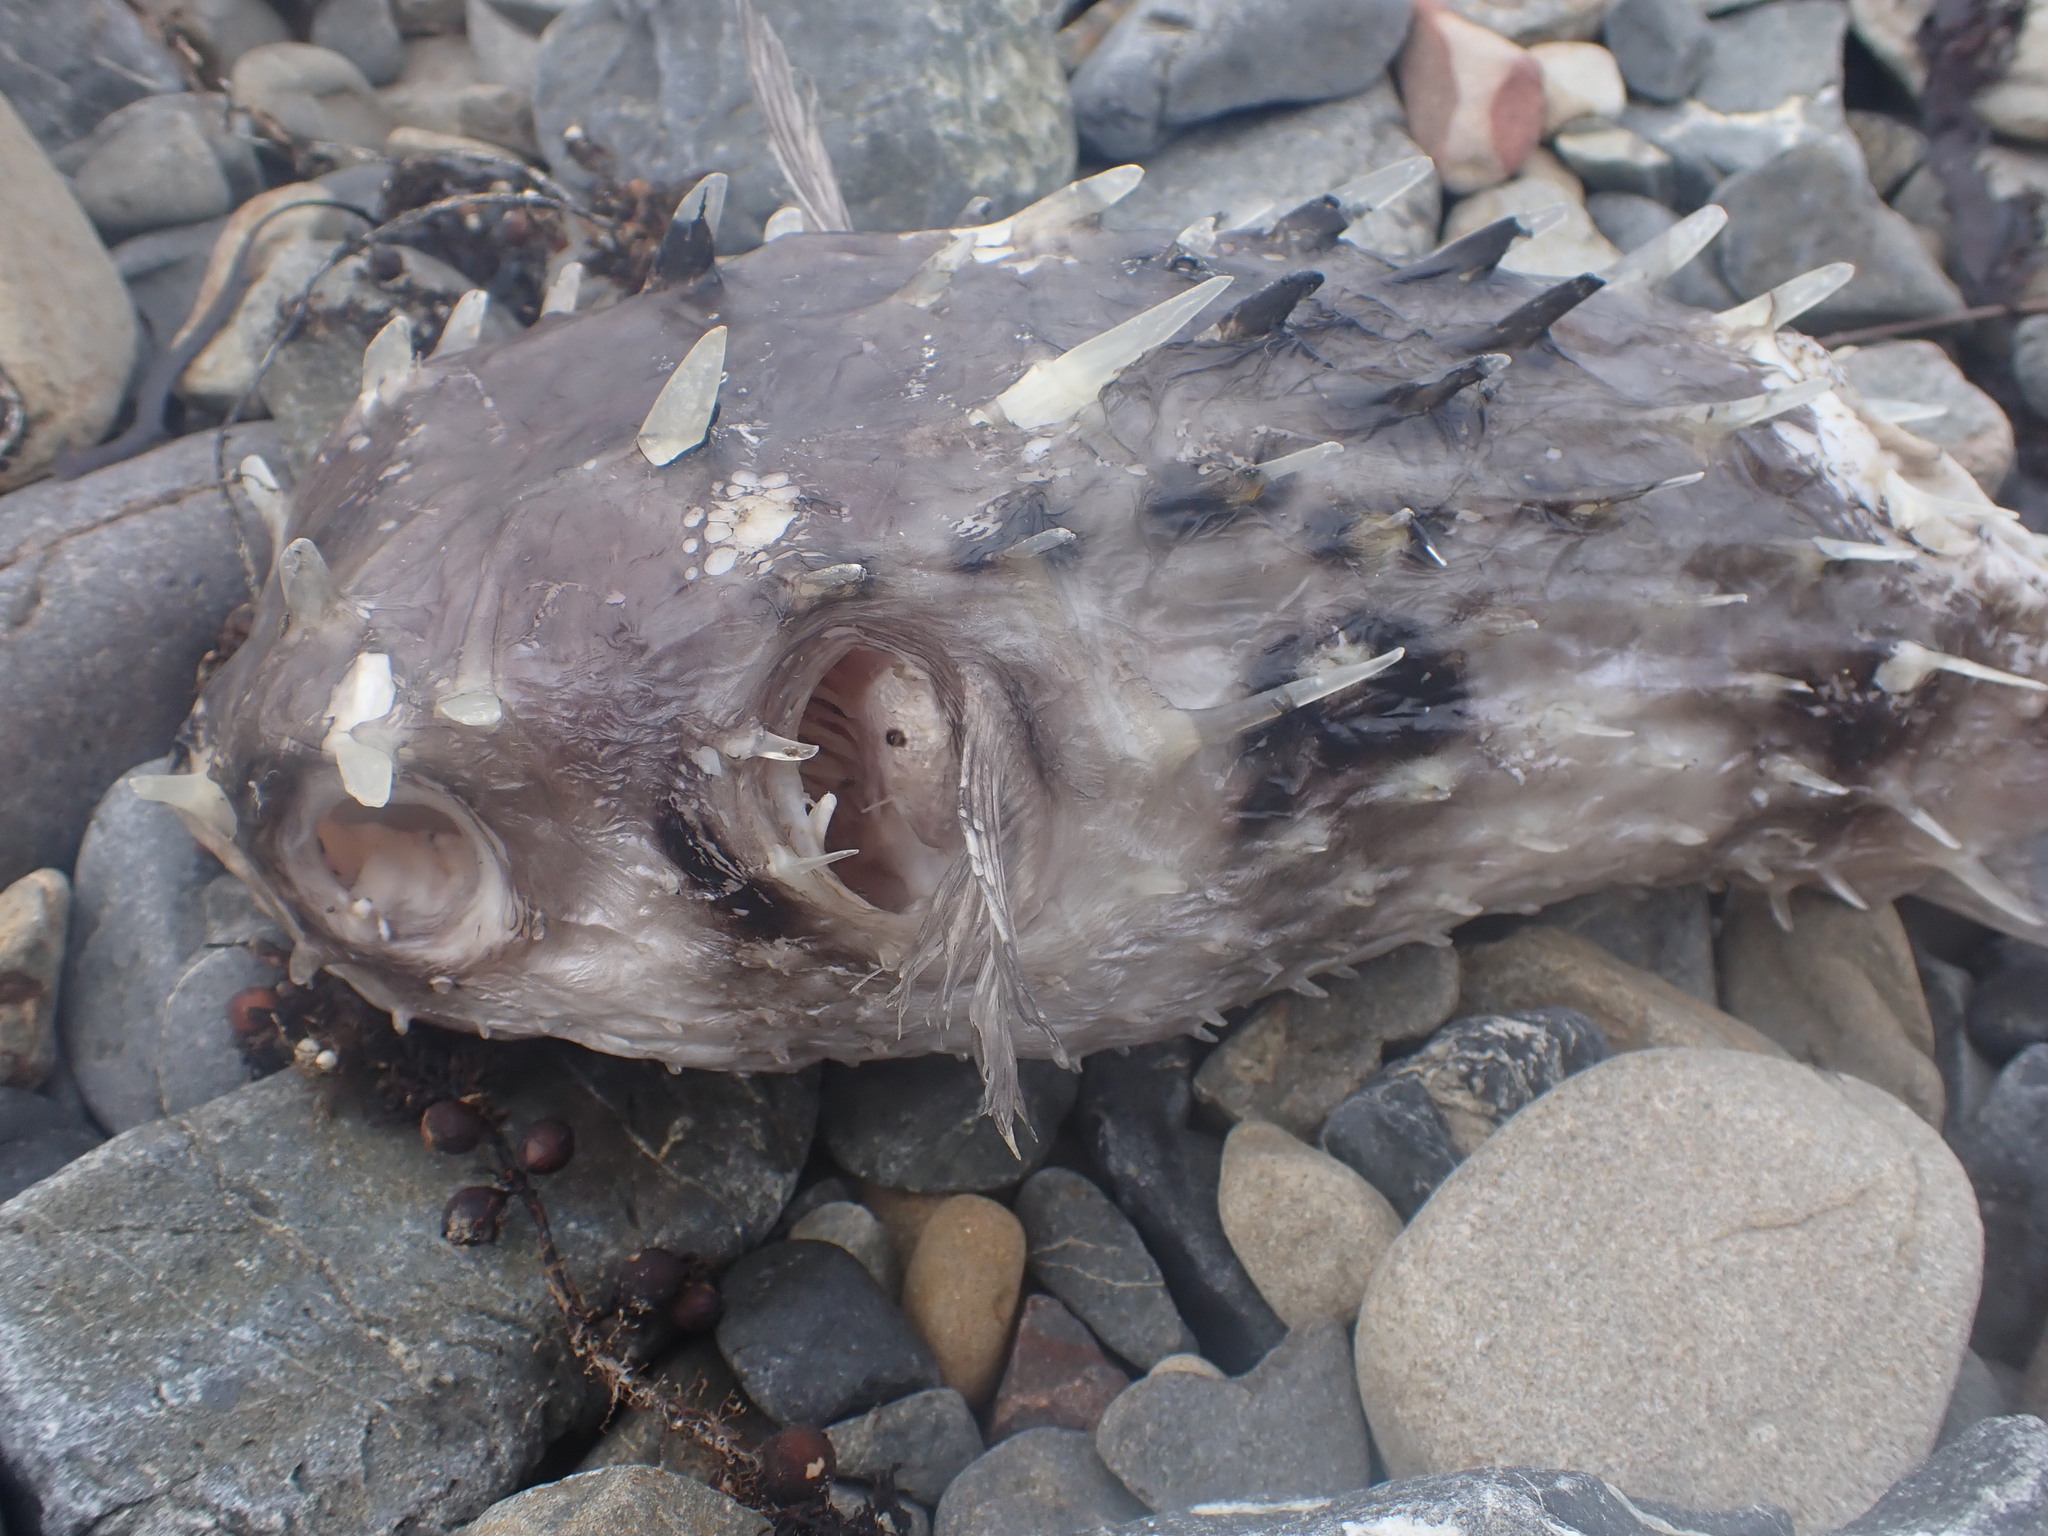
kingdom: Animalia
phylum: Chordata
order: Tetraodontiformes
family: Diodontidae
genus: Allomycterus
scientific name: Allomycterus pilatus
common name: No common name
